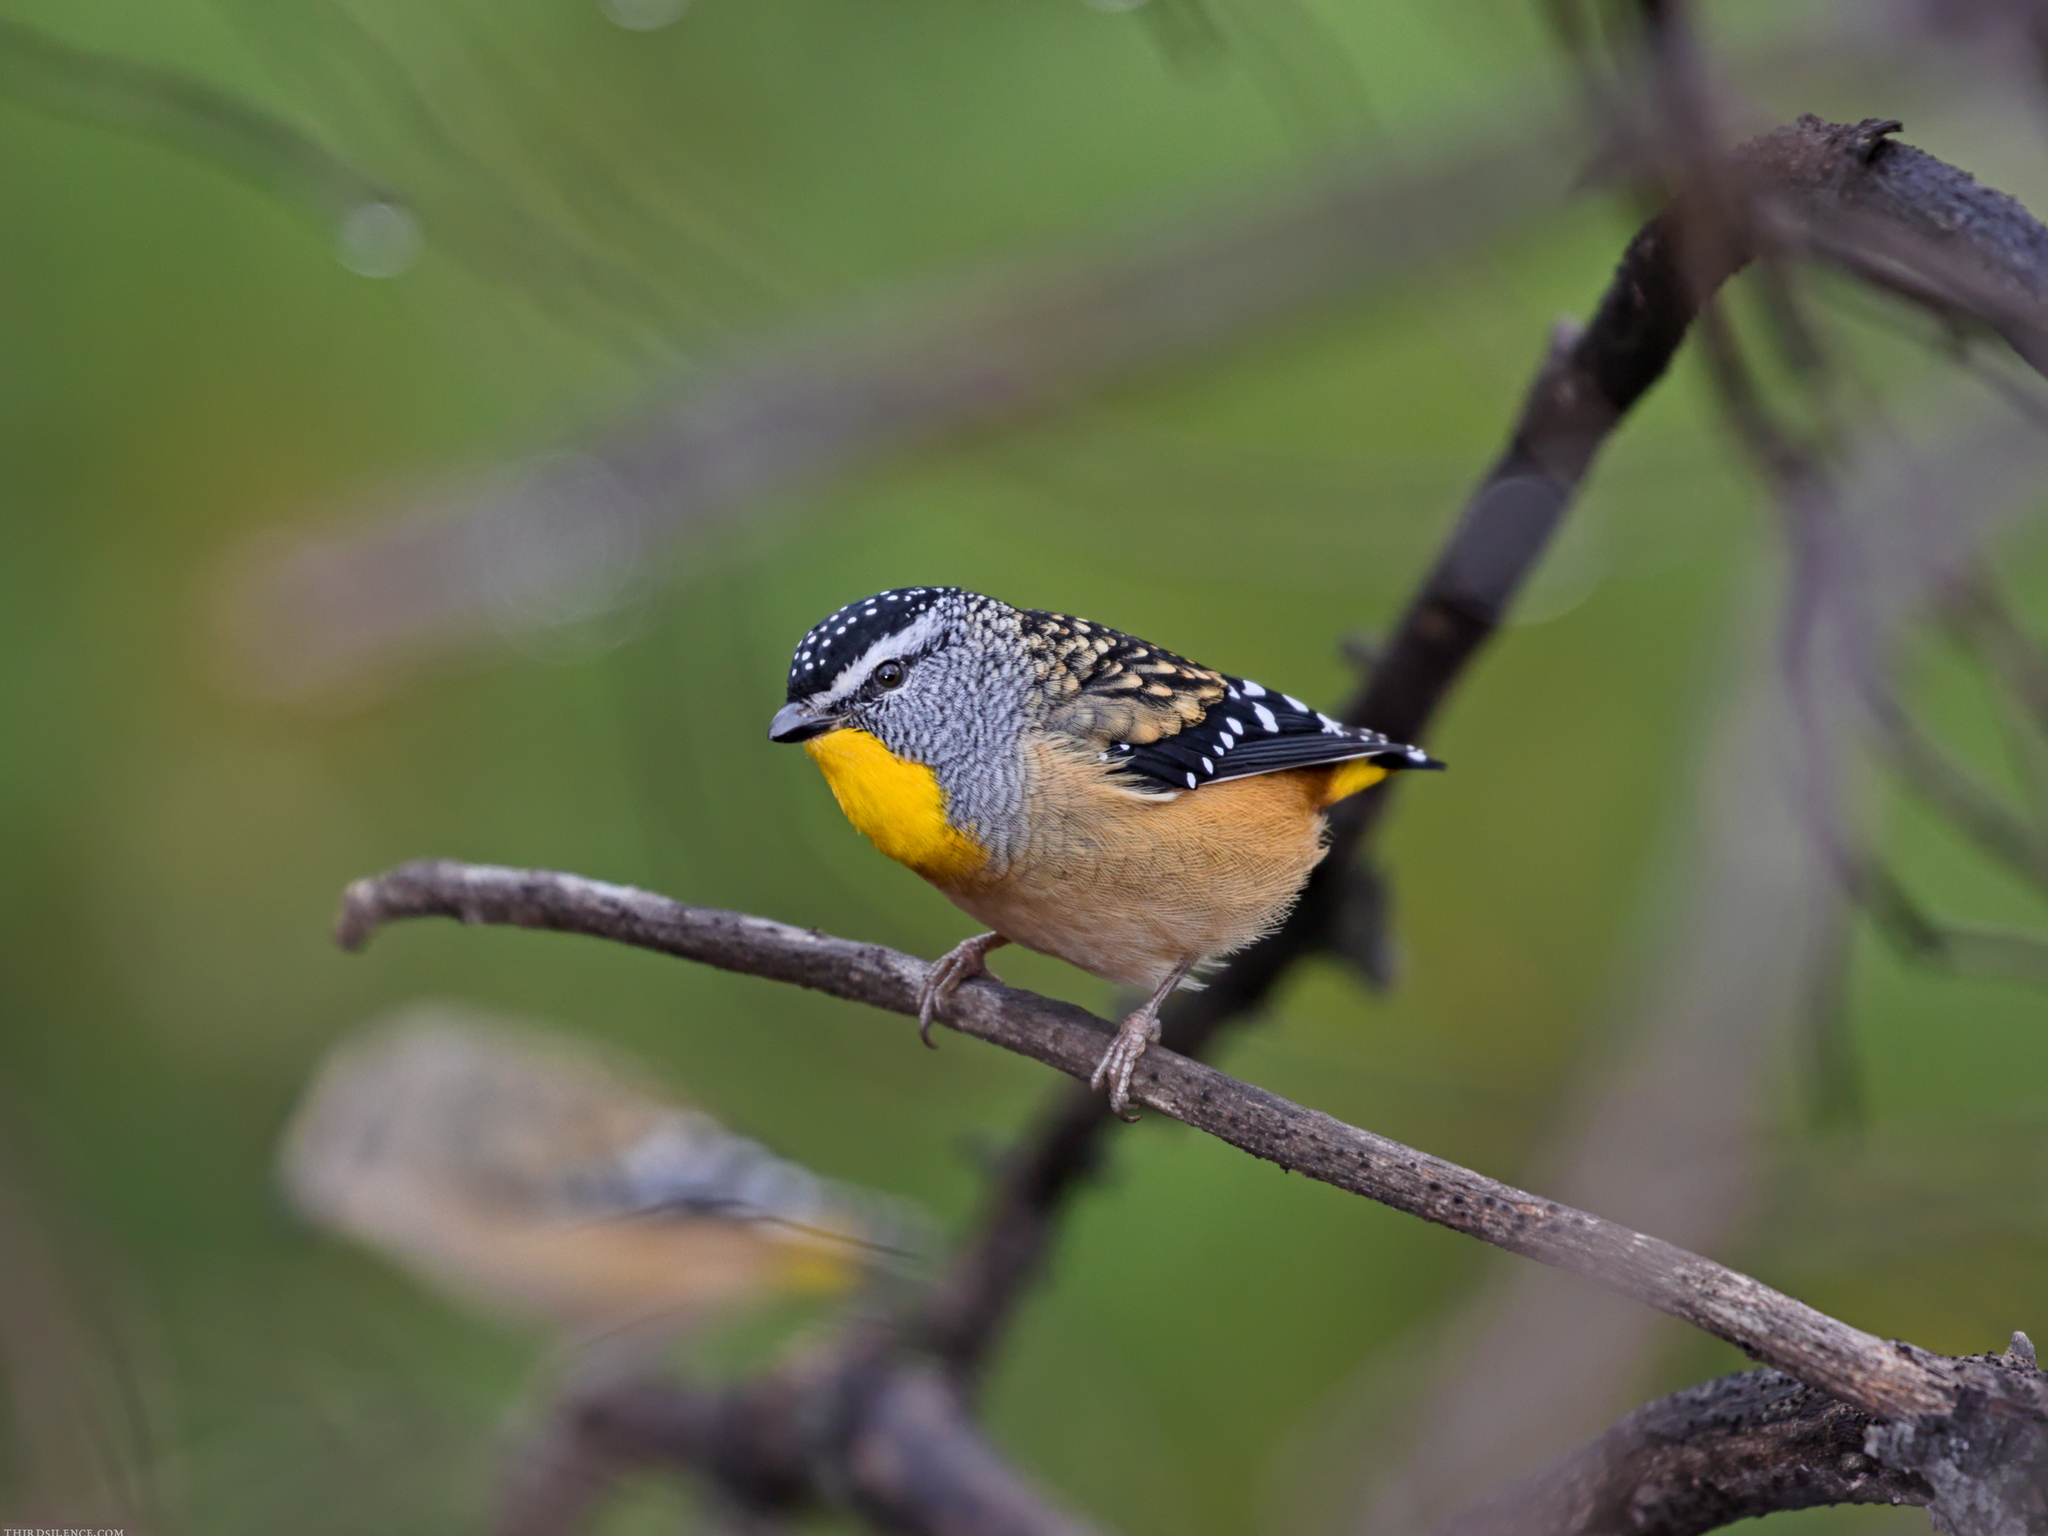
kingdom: Animalia
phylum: Chordata
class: Aves
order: Passeriformes
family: Pardalotidae
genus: Pardalotus
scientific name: Pardalotus punctatus
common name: Spotted pardalote
